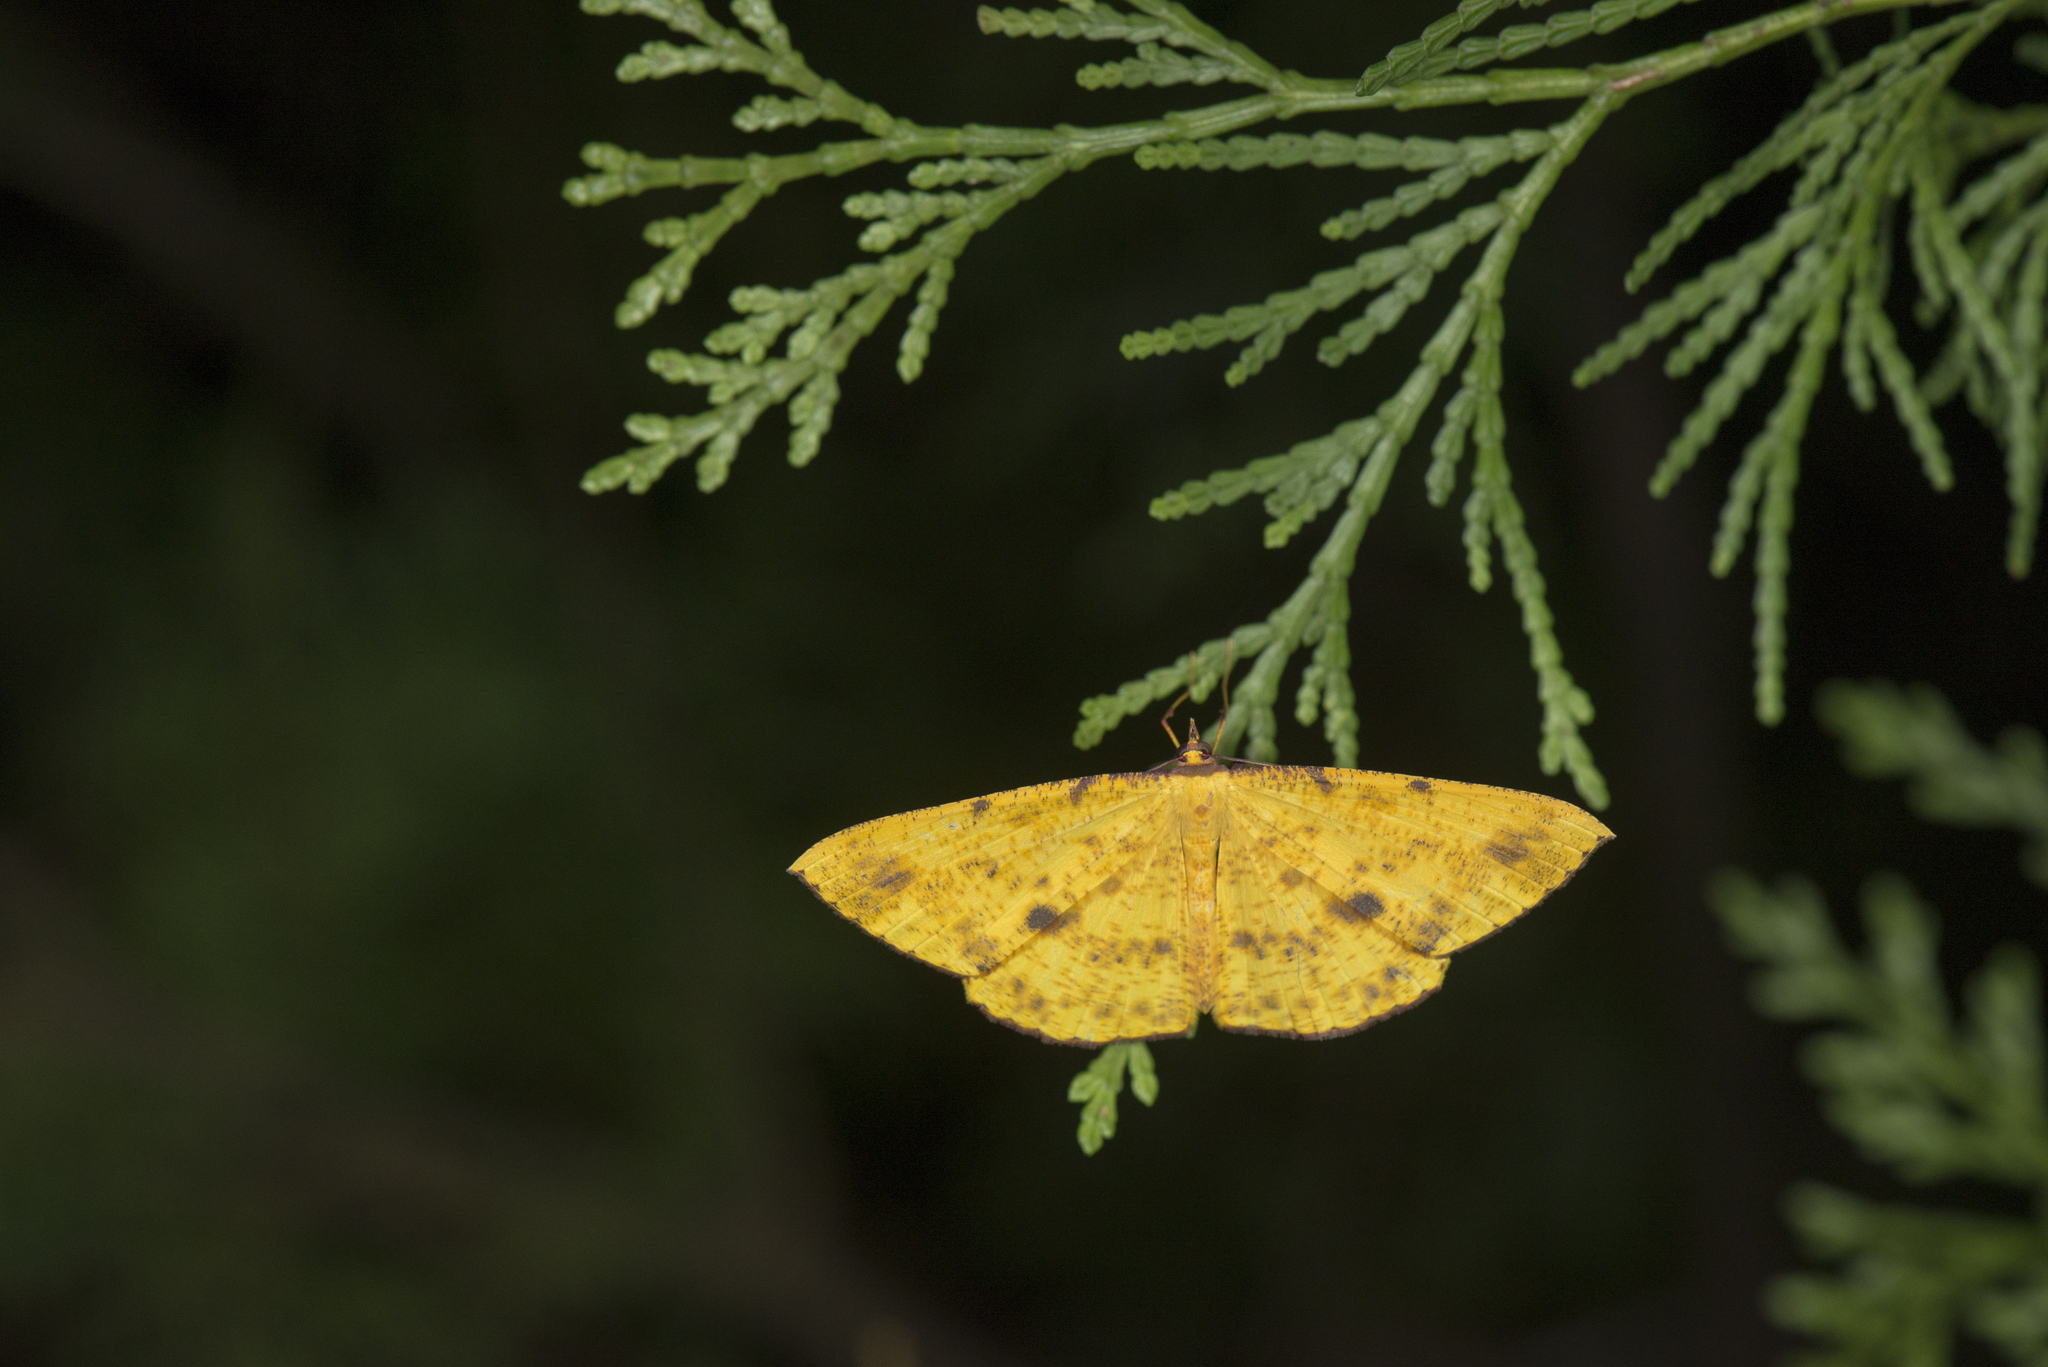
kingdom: Animalia
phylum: Arthropoda
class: Insecta
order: Lepidoptera
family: Geometridae
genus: Eumelea
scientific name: Eumelea ludovicata
